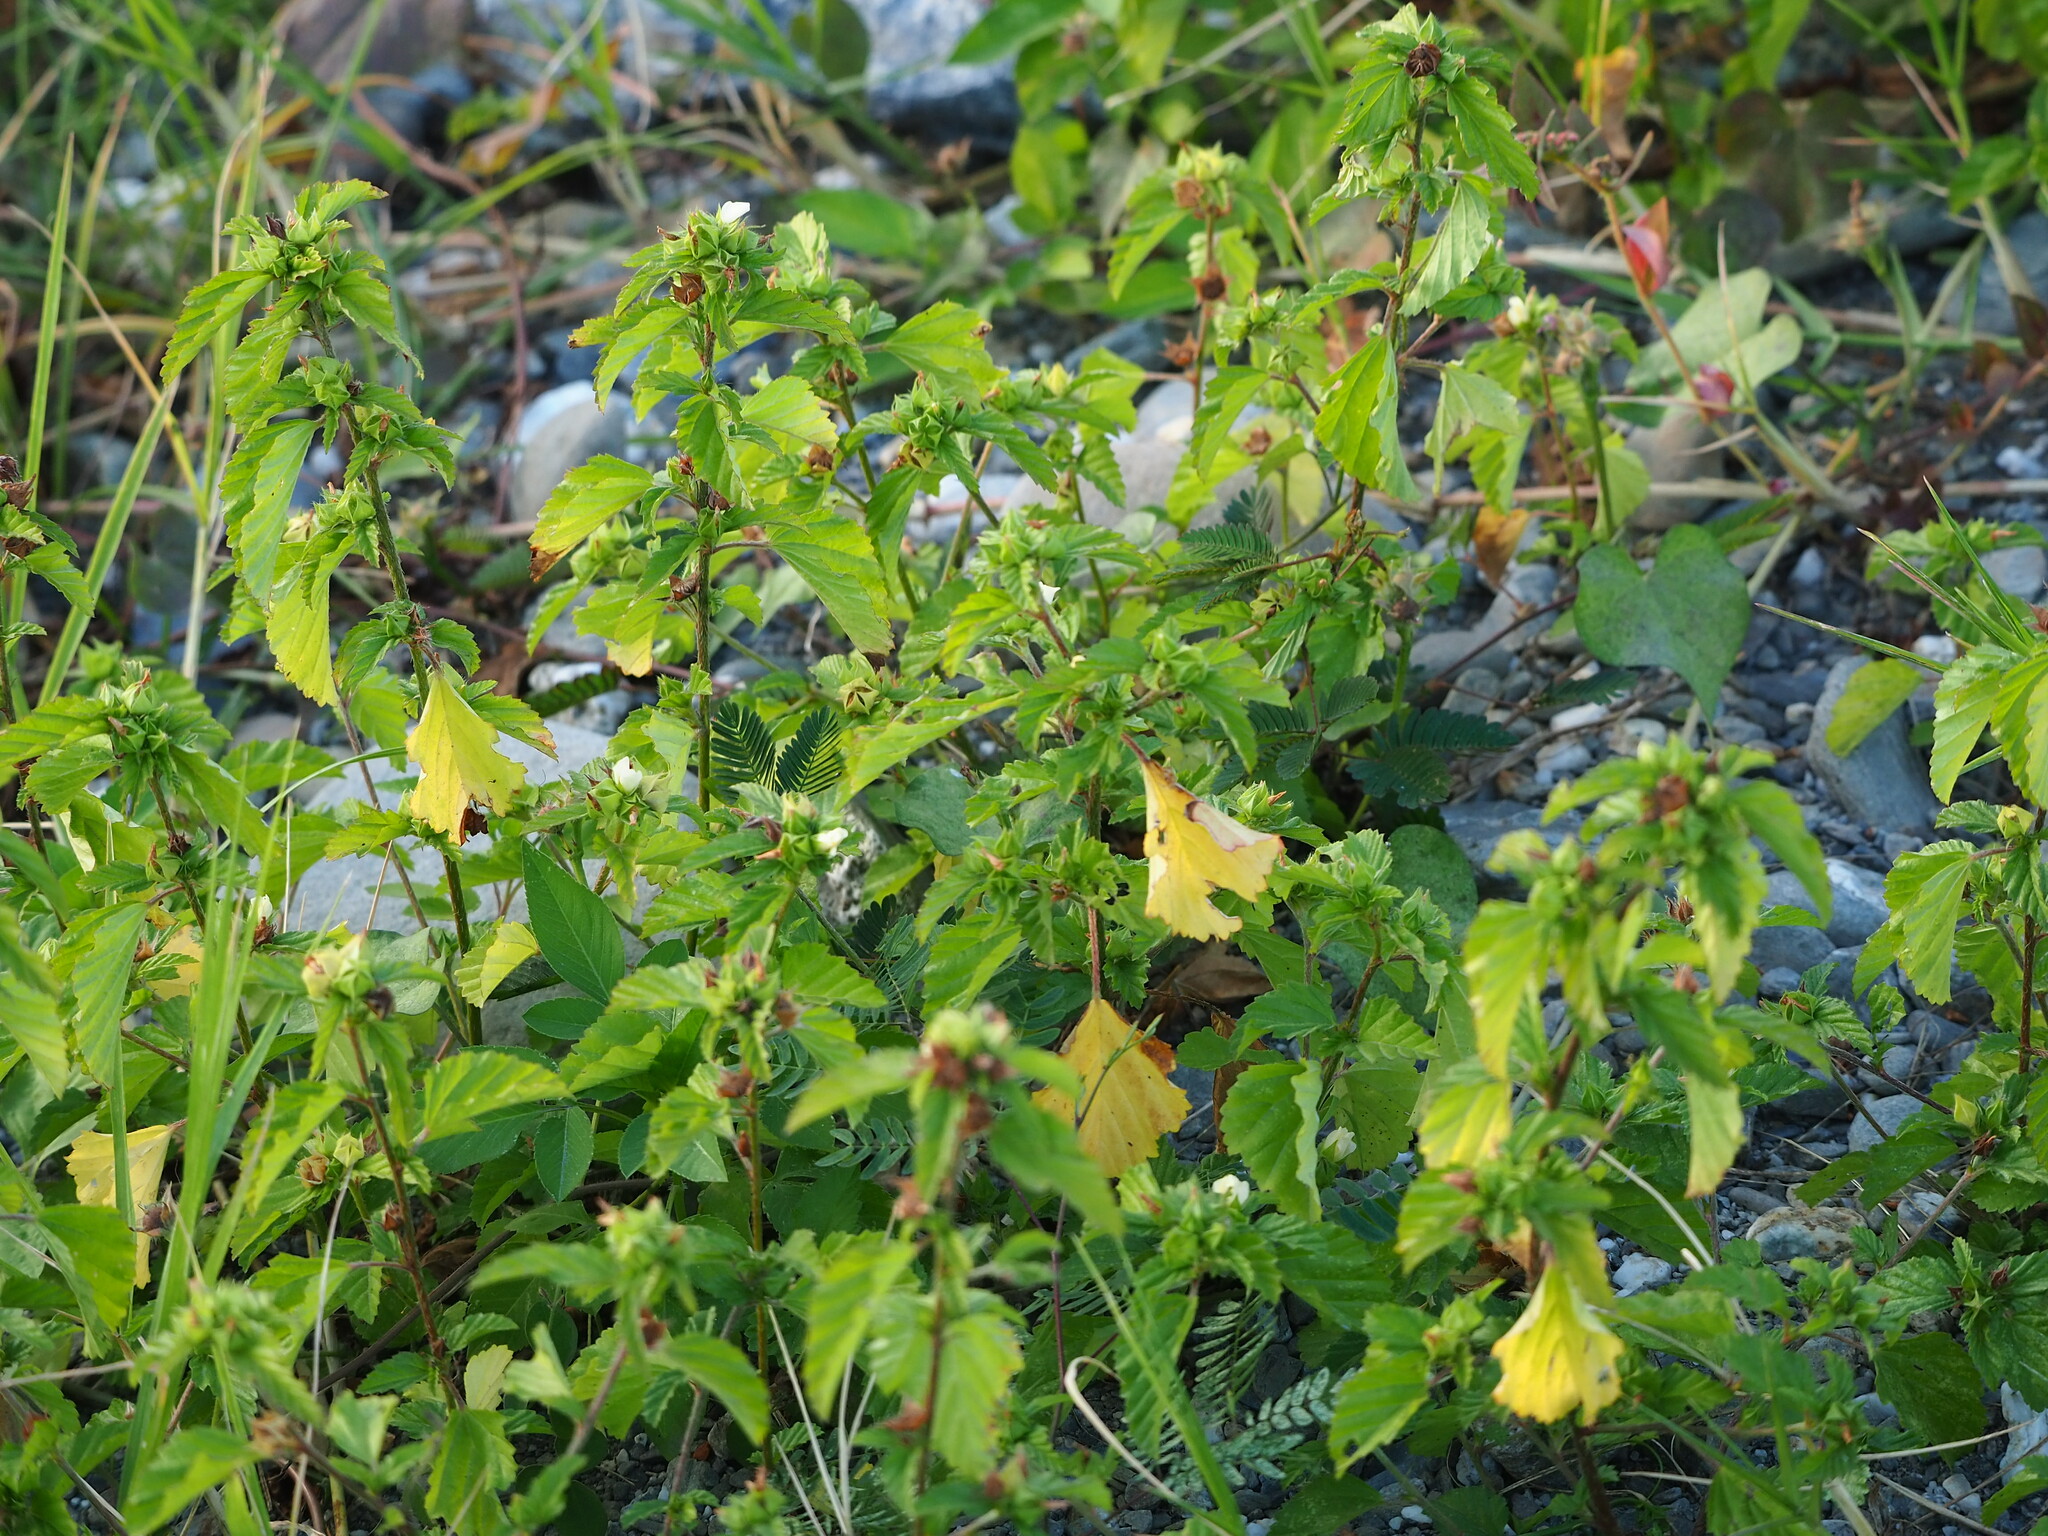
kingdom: Plantae
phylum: Tracheophyta
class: Magnoliopsida
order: Malvales
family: Malvaceae
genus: Malvastrum
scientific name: Malvastrum coromandelianum
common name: Threelobe false mallow
